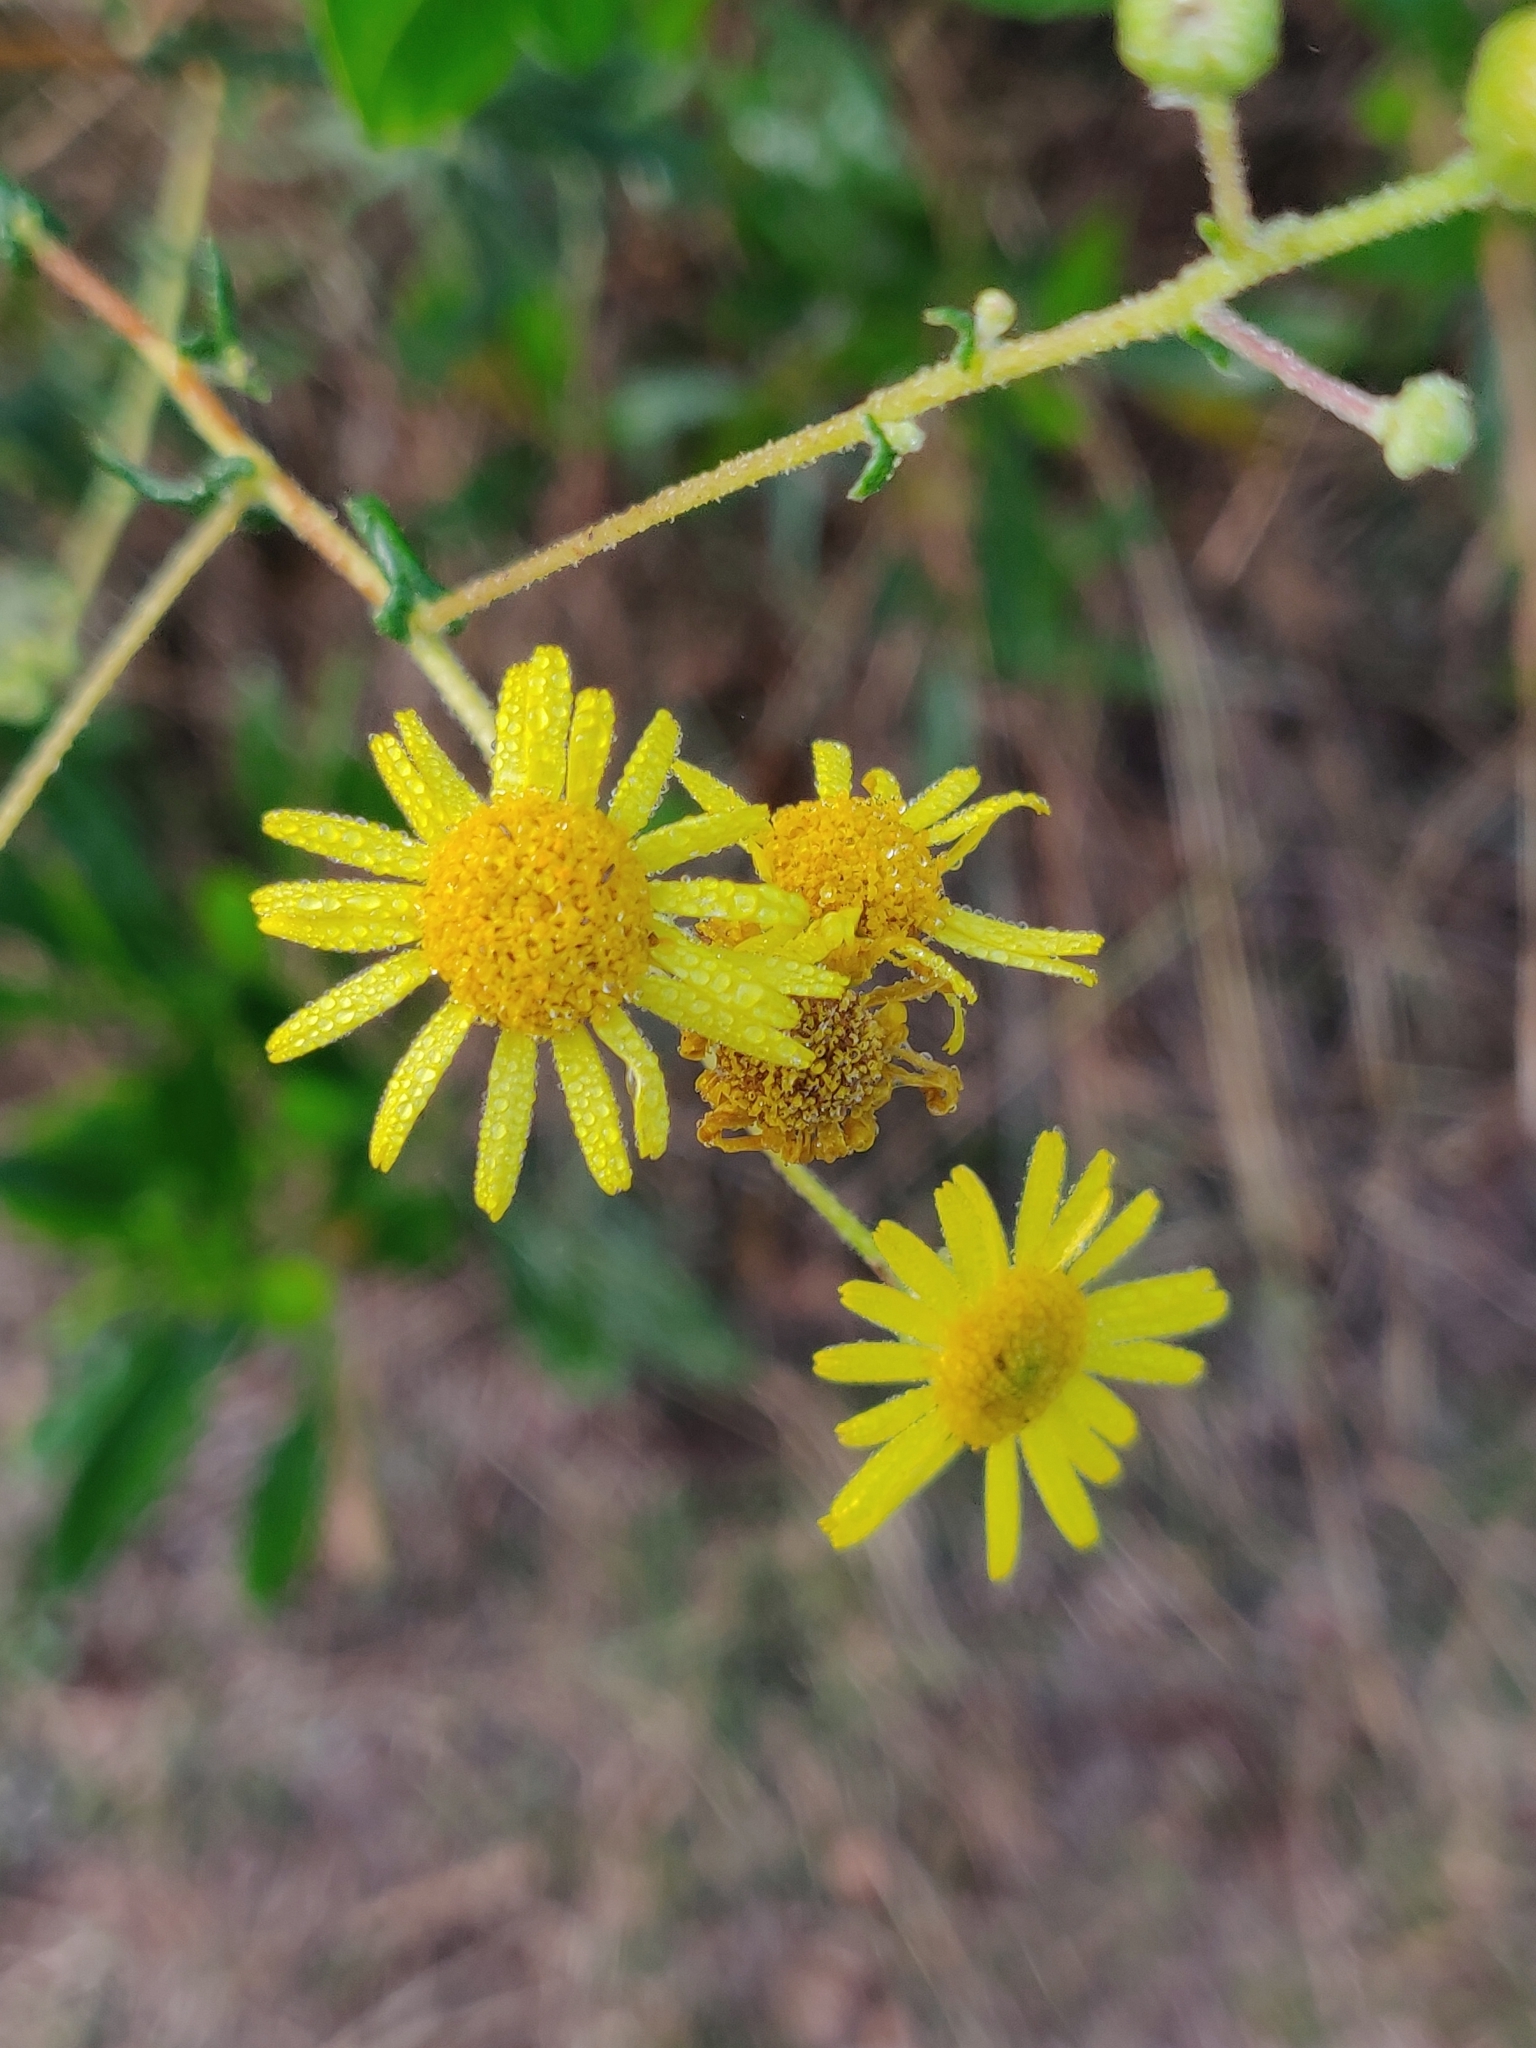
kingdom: Plantae
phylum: Tracheophyta
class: Magnoliopsida
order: Asterales
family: Asteraceae
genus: Vicoa
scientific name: Vicoa indica
